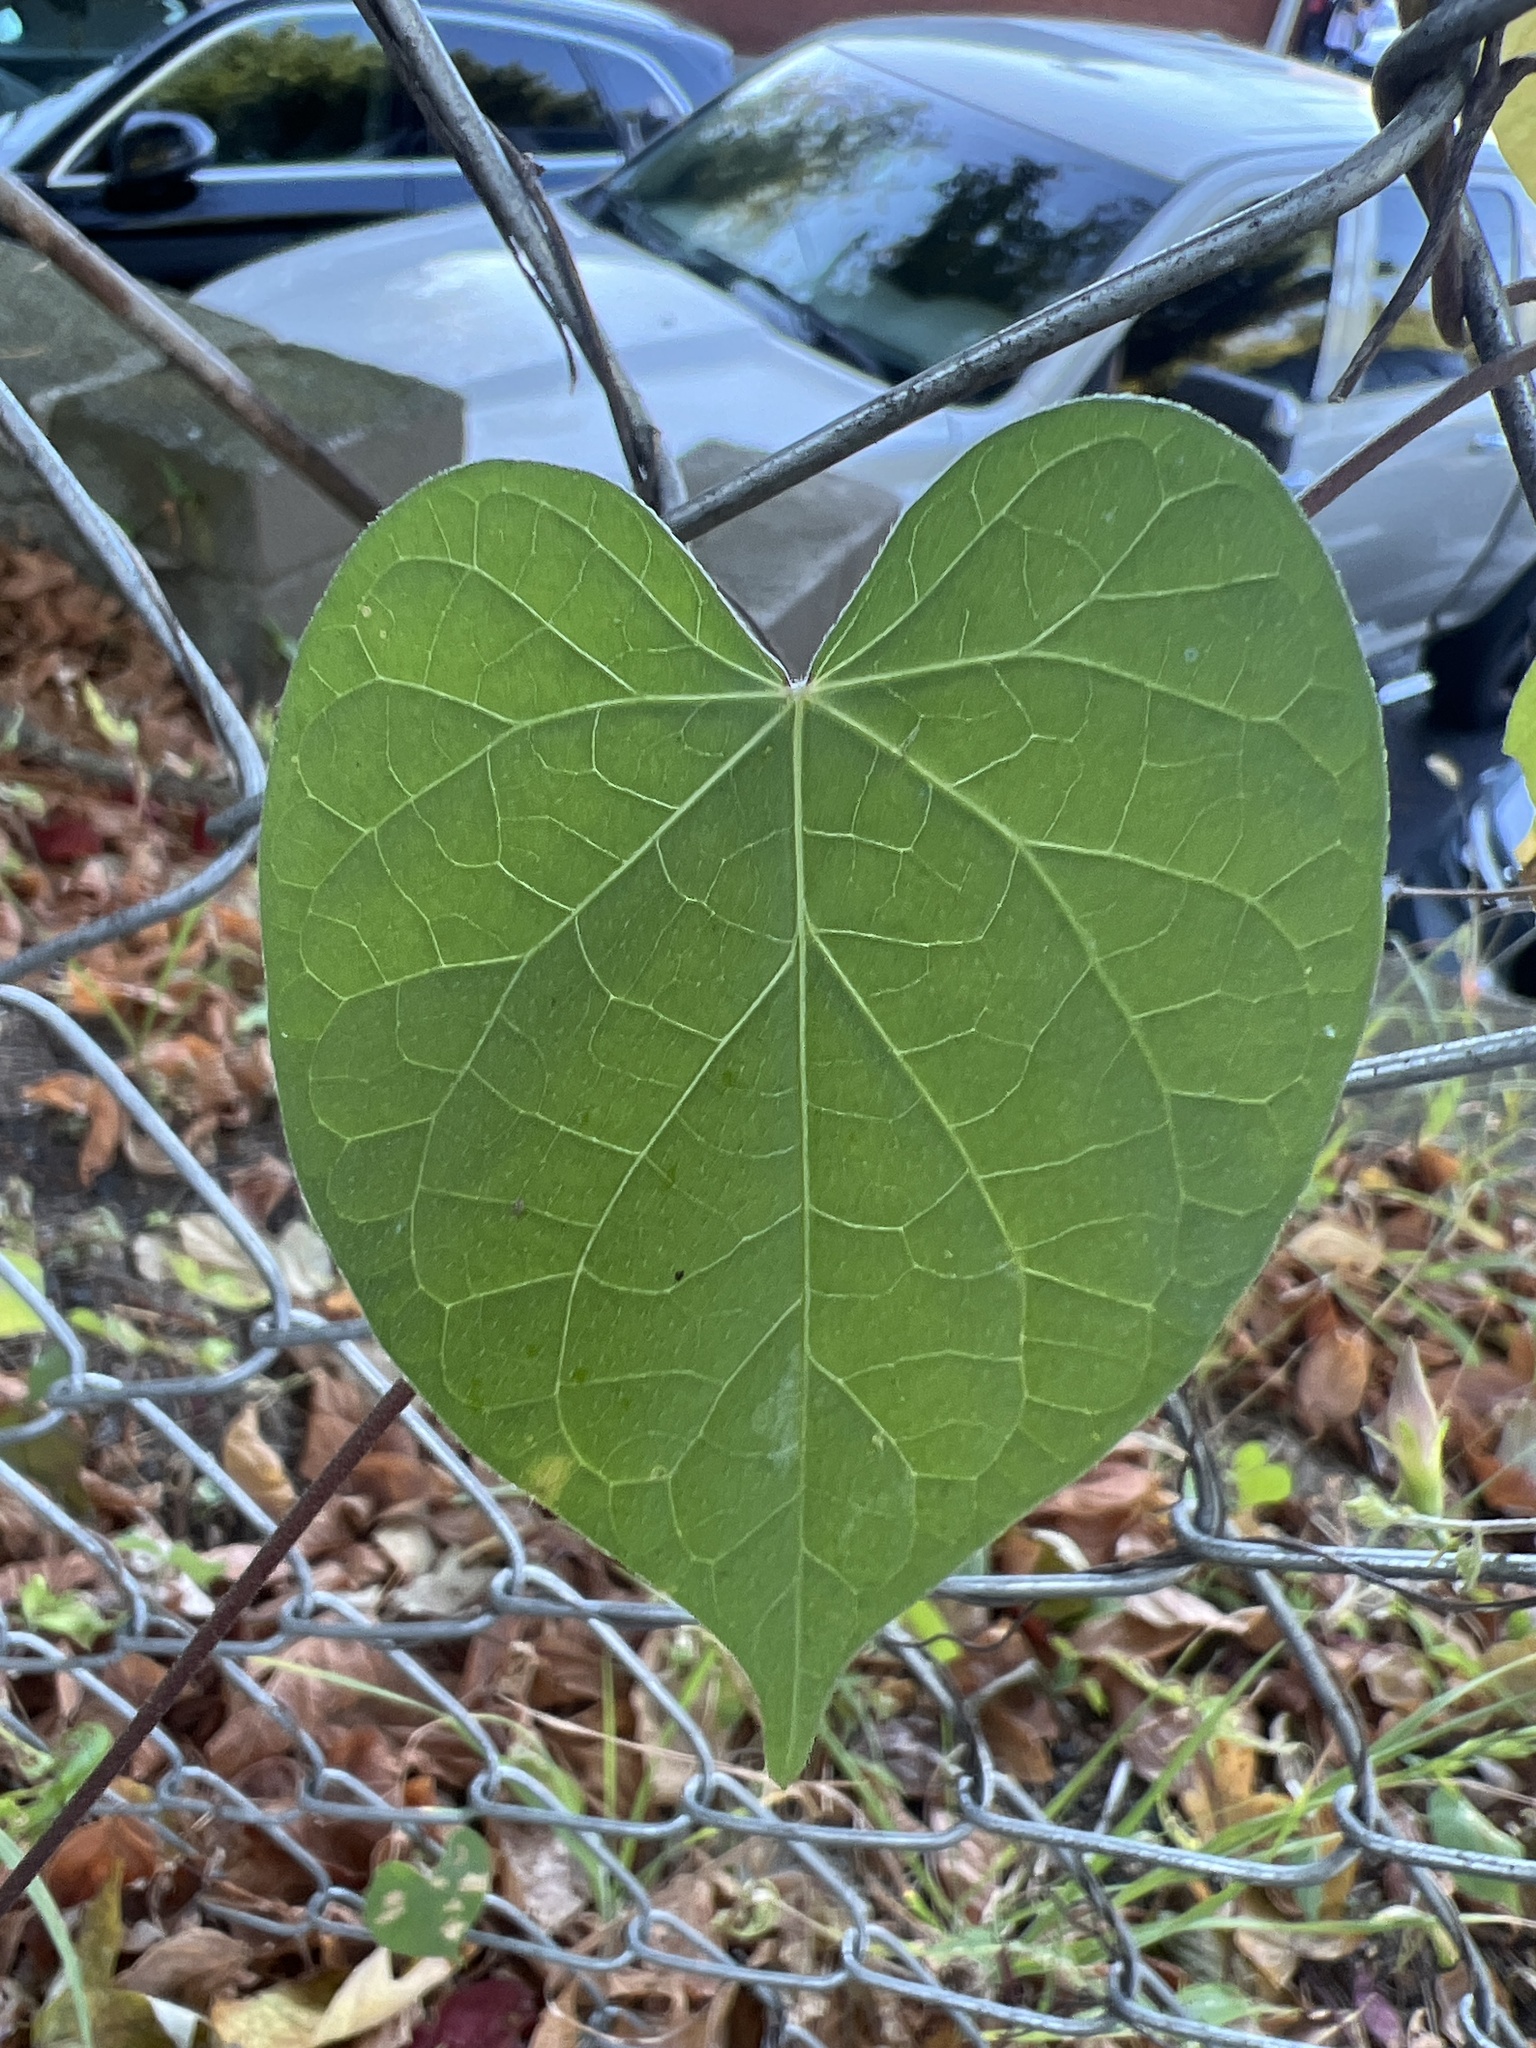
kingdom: Plantae
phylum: Tracheophyta
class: Magnoliopsida
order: Solanales
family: Convolvulaceae
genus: Ipomoea
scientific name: Ipomoea purpurea
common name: Common morning-glory
